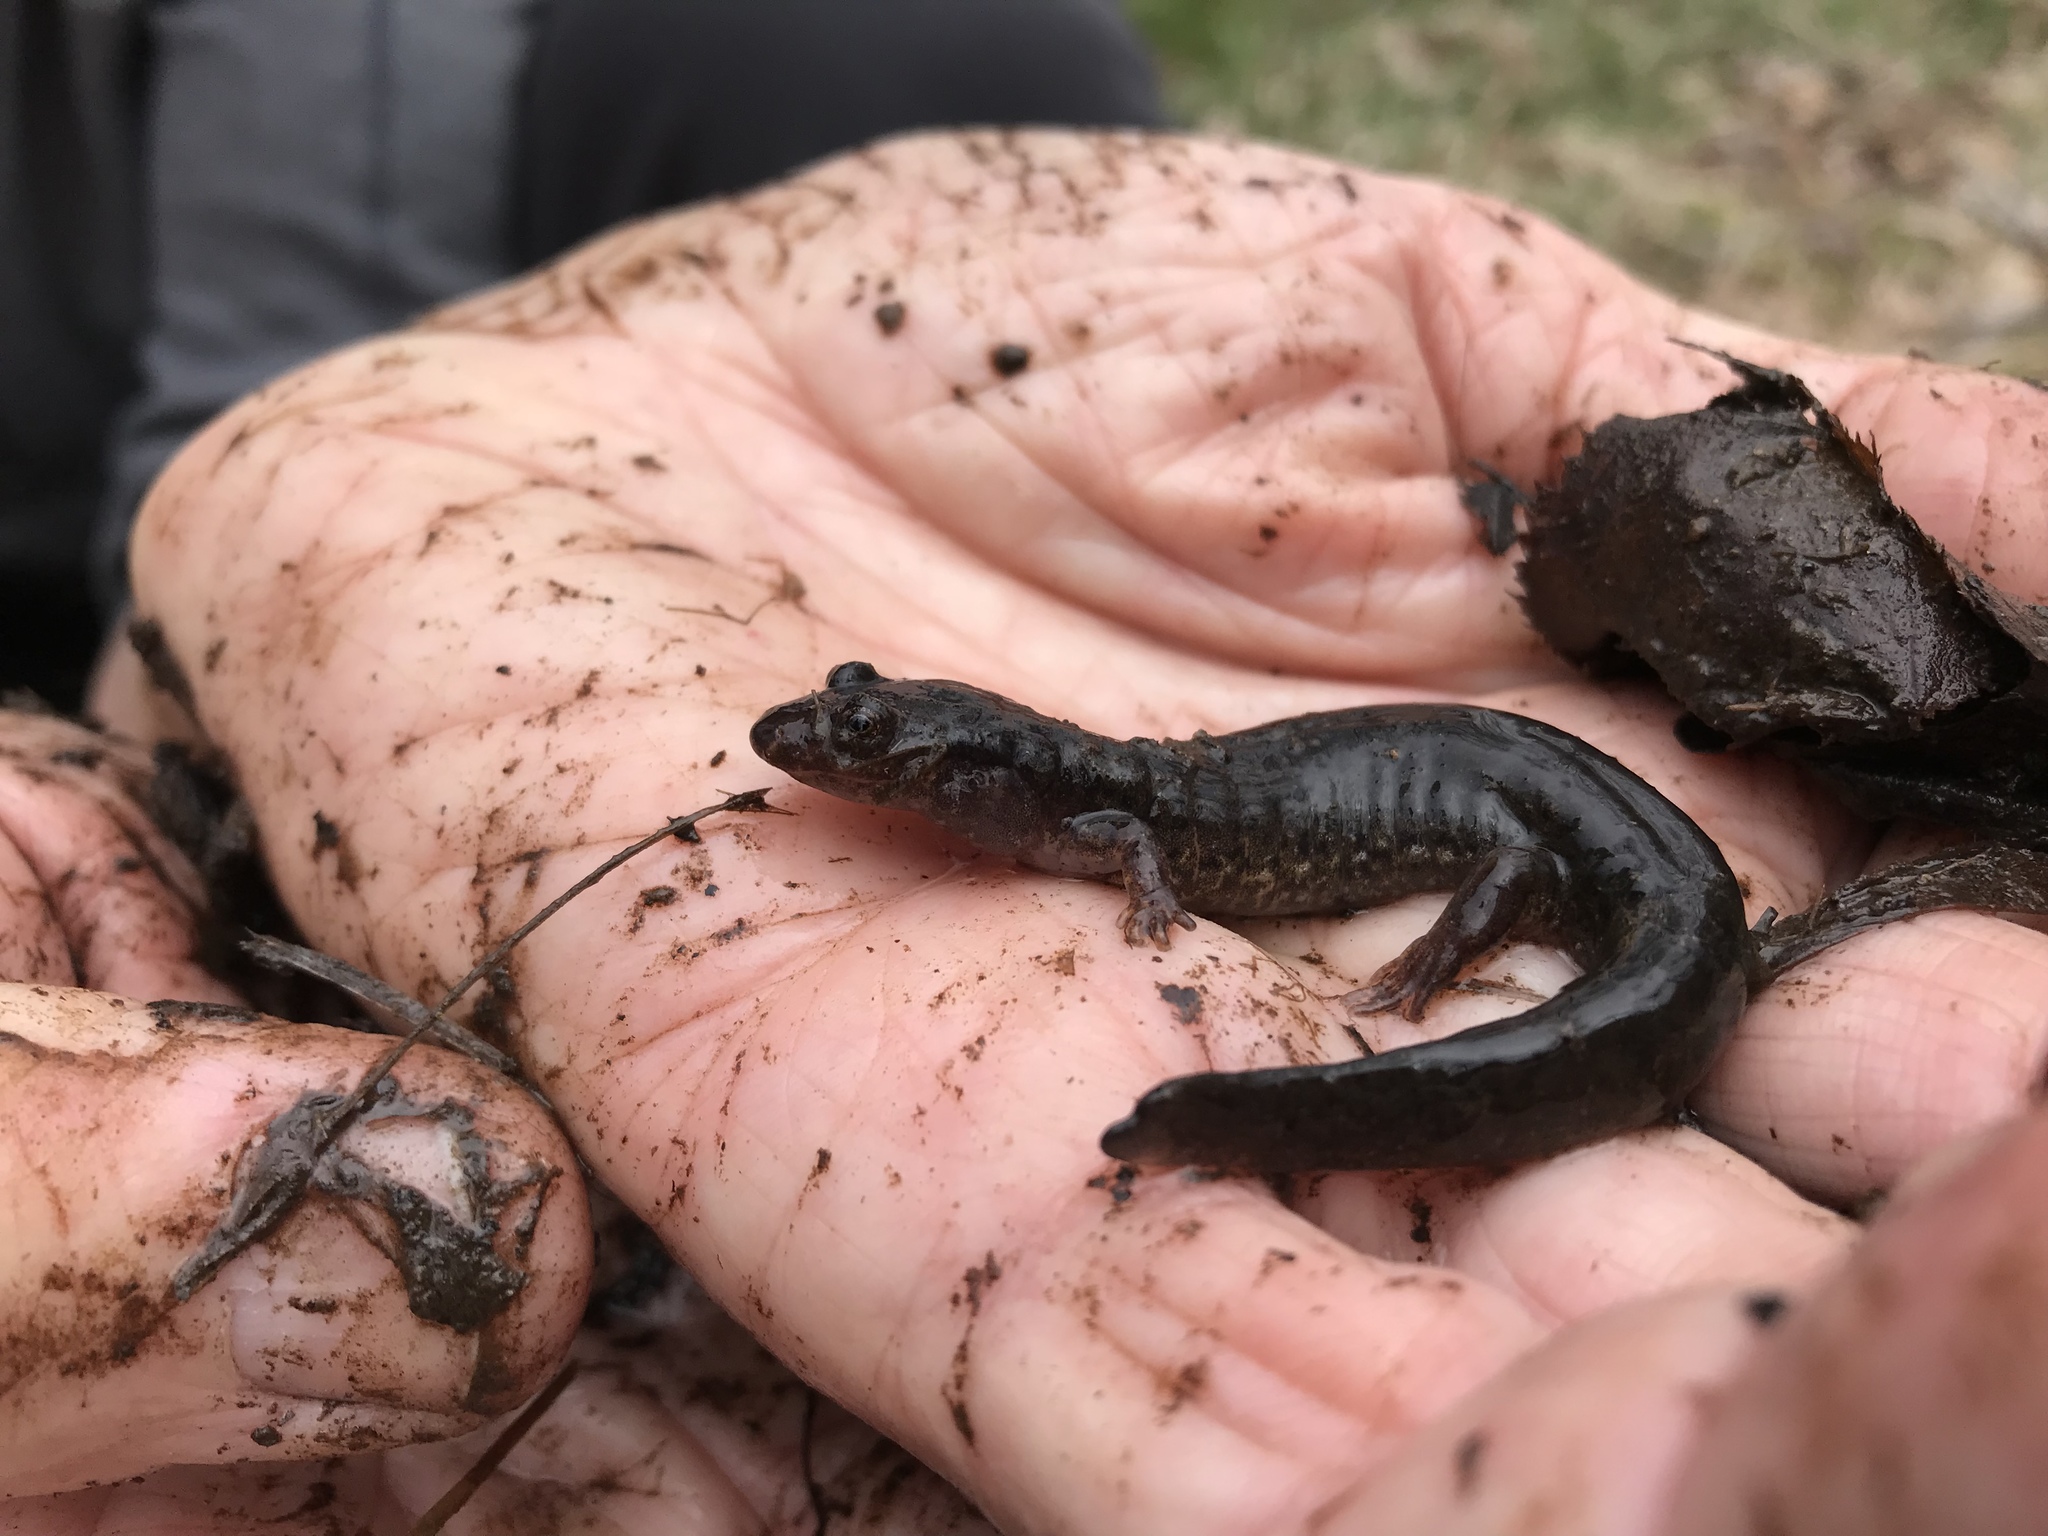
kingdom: Animalia
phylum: Chordata
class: Amphibia
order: Caudata
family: Plethodontidae
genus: Desmognathus
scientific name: Desmognathus fuscus
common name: Northern dusky salamander
